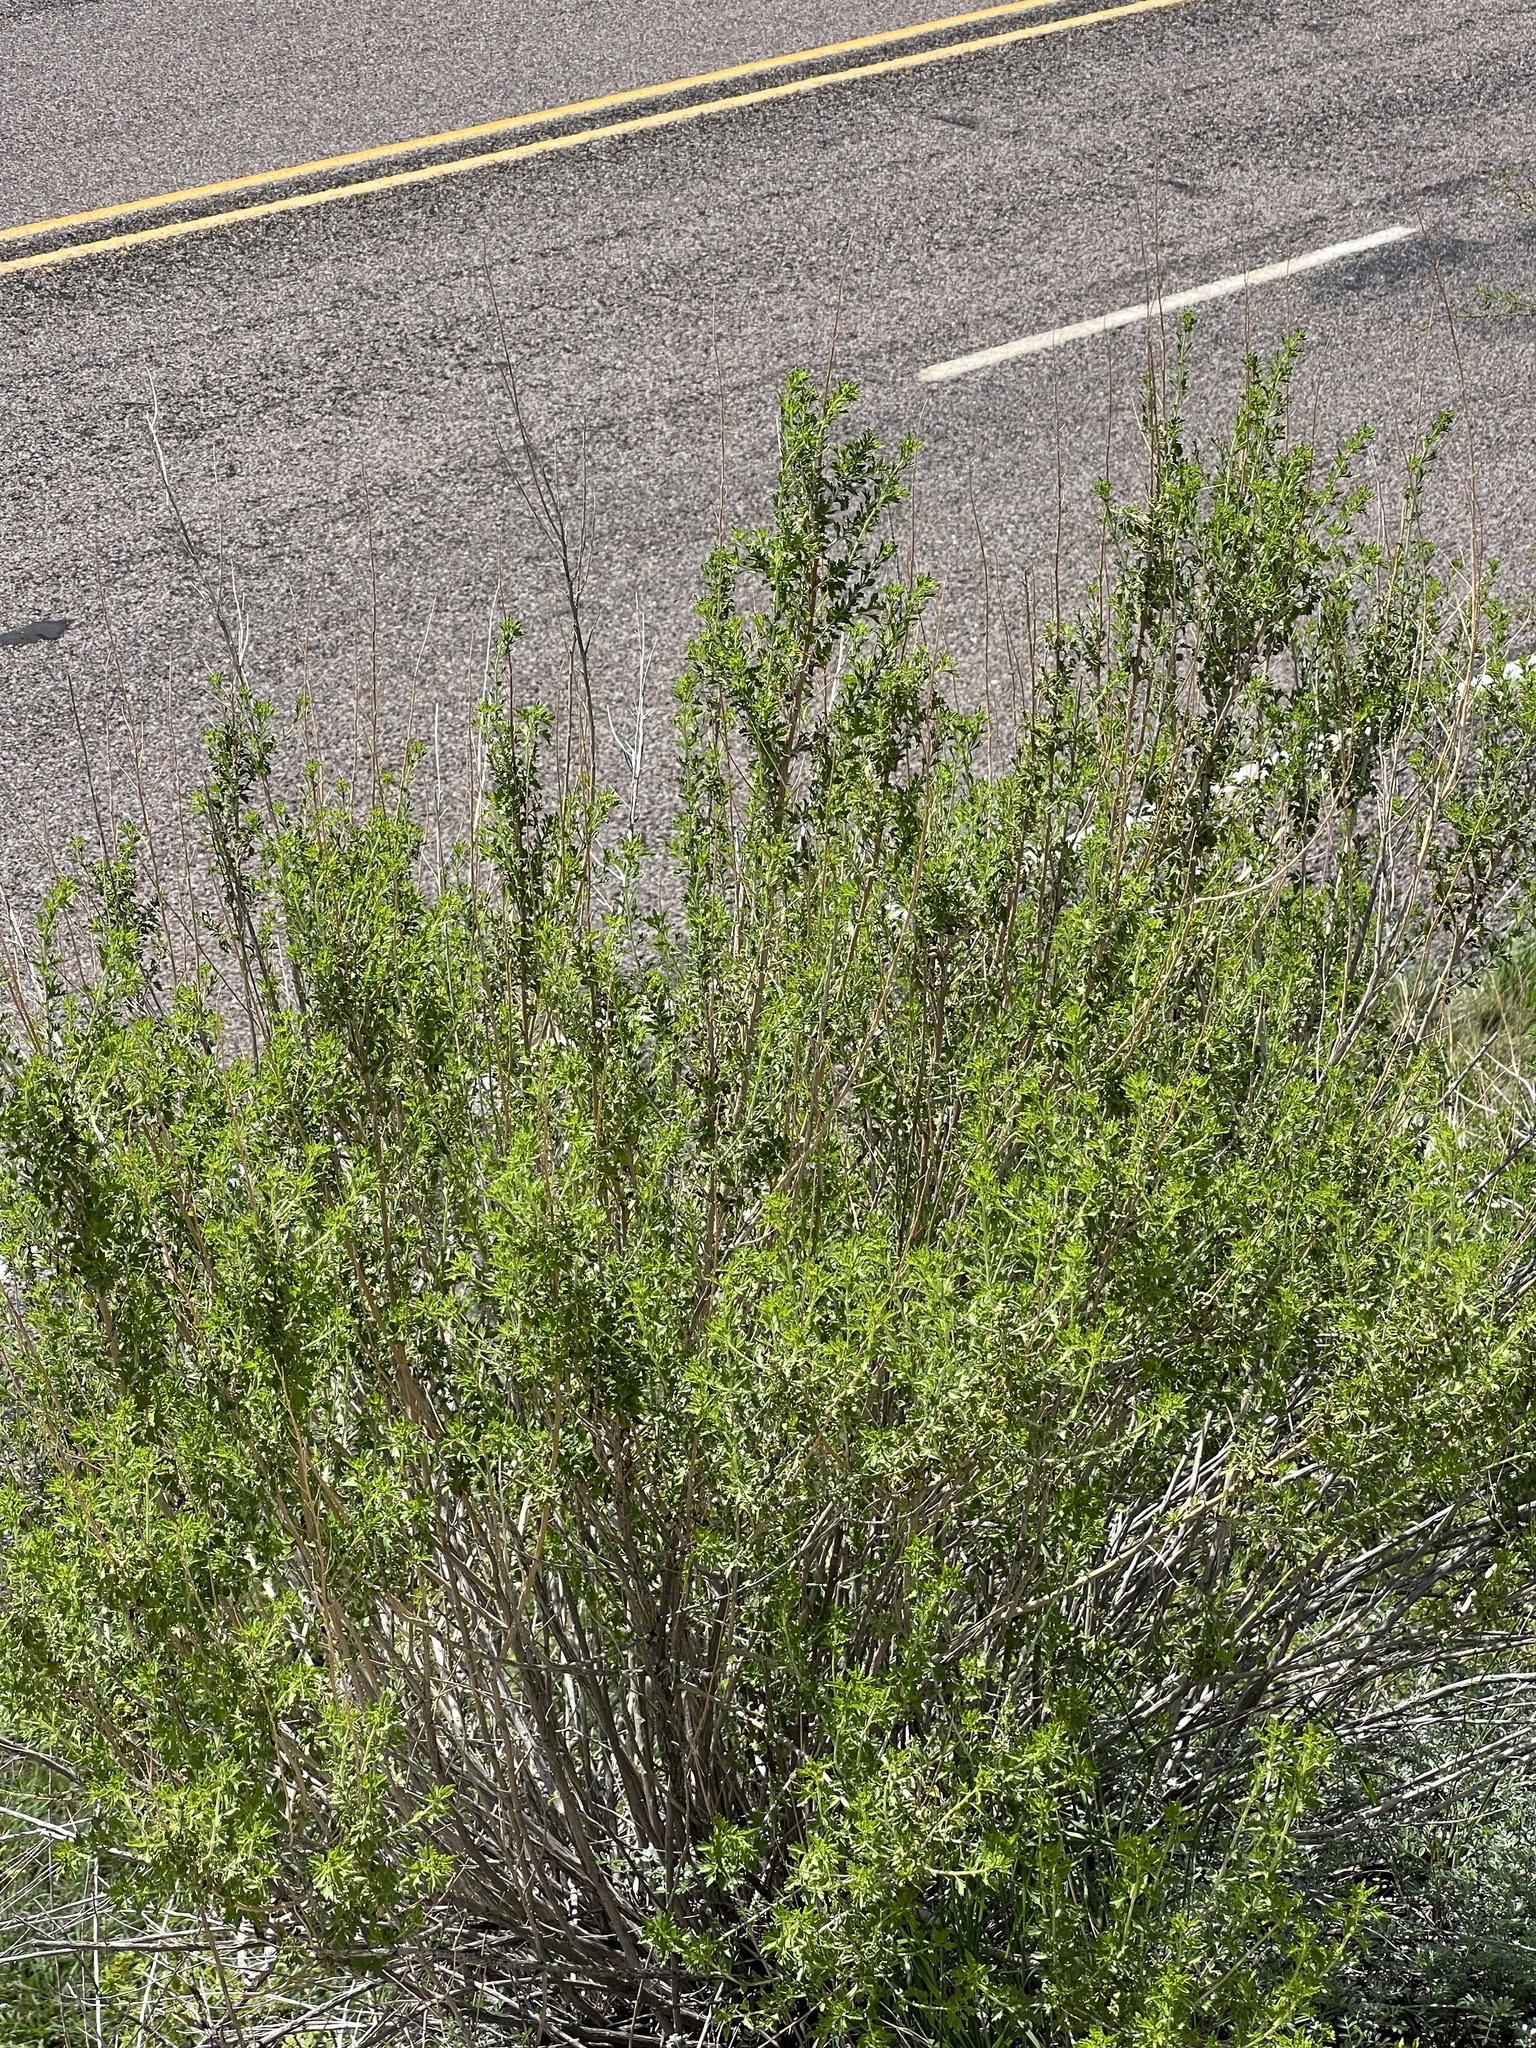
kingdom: Plantae
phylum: Tracheophyta
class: Magnoliopsida
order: Asterales
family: Asteraceae
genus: Brickellia
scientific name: Brickellia laciniata
